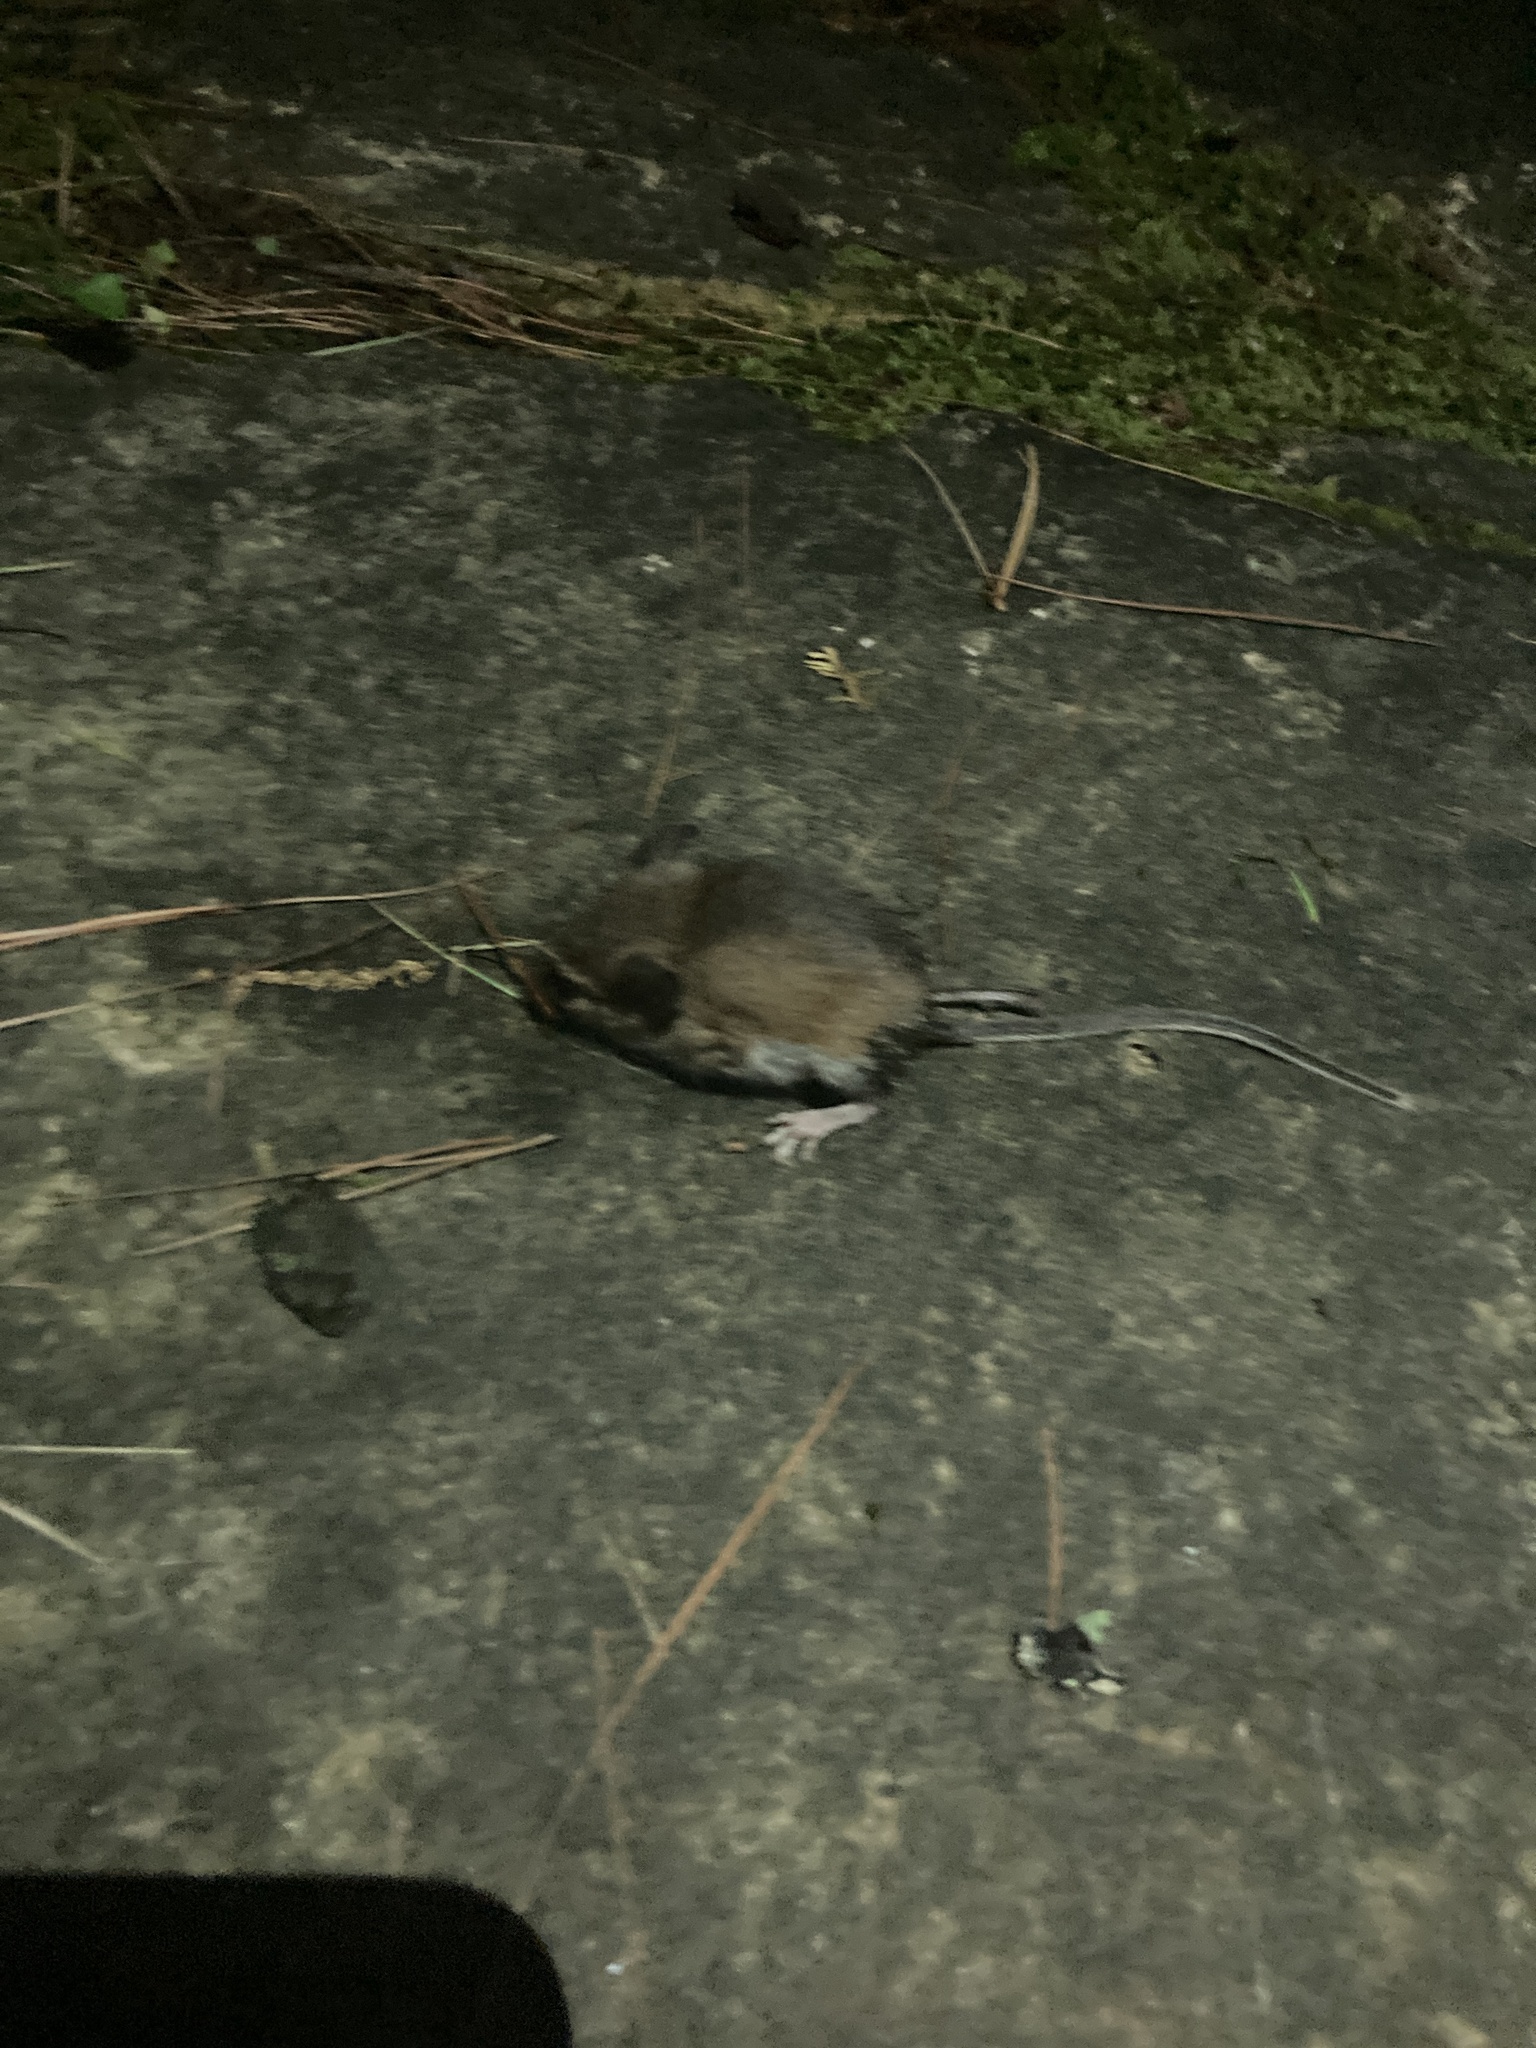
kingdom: Animalia
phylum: Chordata
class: Mammalia
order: Rodentia
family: Dipodidae
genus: Napaeozapus
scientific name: Napaeozapus insignis
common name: Woodland jumping mouse
